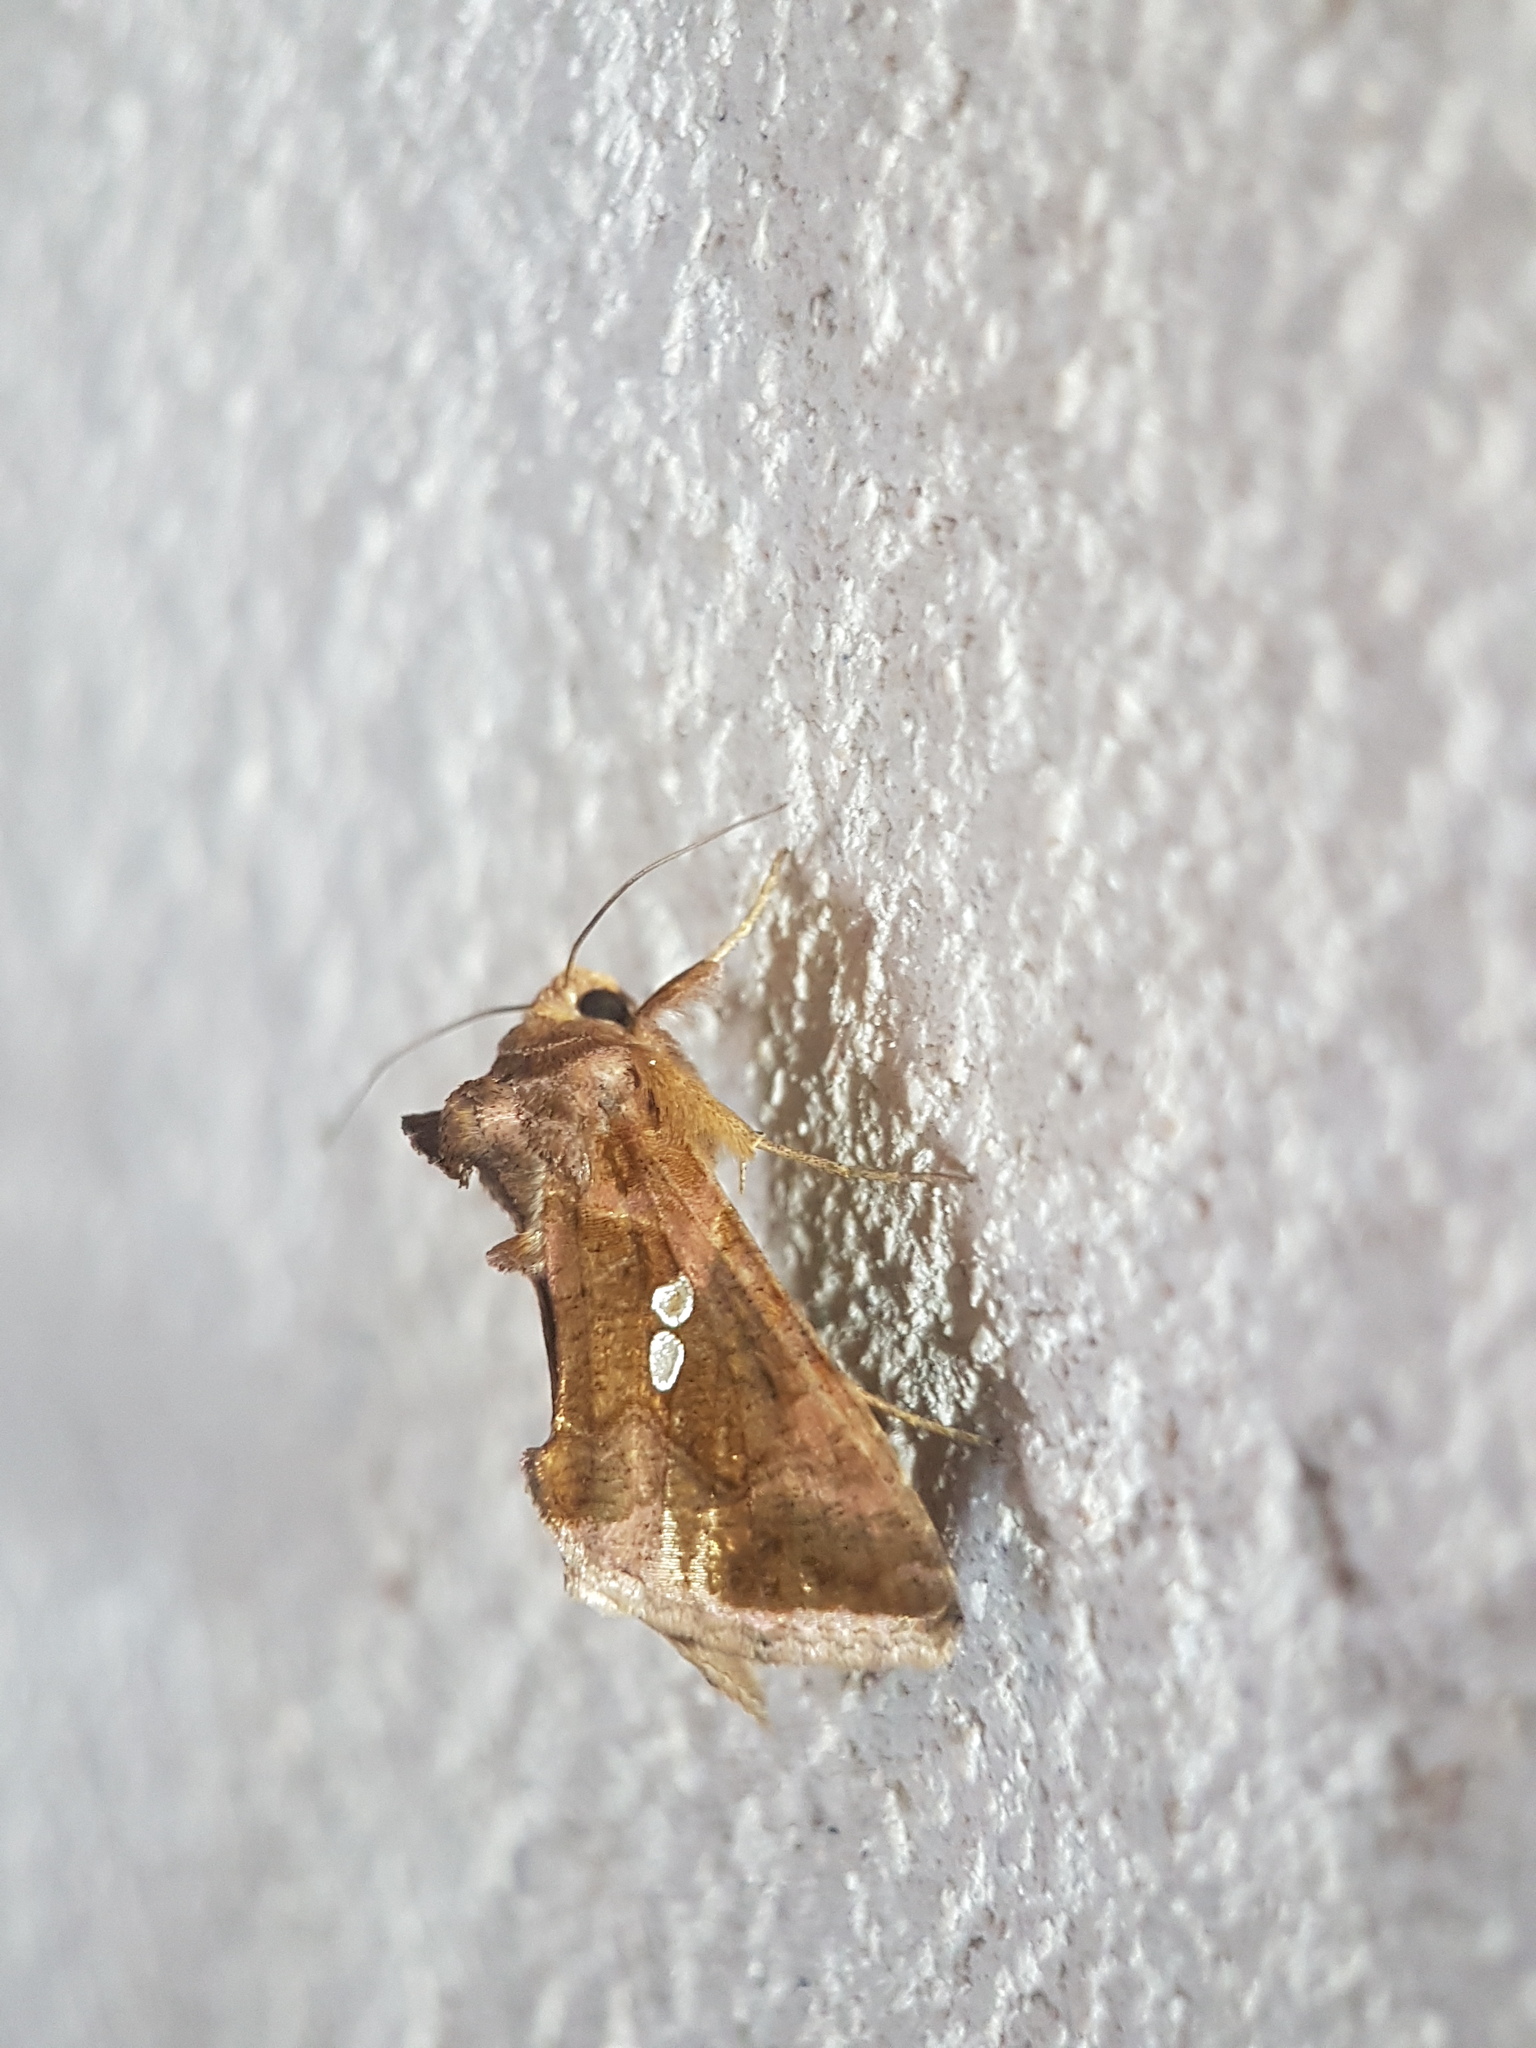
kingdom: Animalia
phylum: Arthropoda
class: Insecta
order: Lepidoptera
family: Noctuidae
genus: Chrysodeixis
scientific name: Chrysodeixis chalcites
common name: Golden twin-spot
